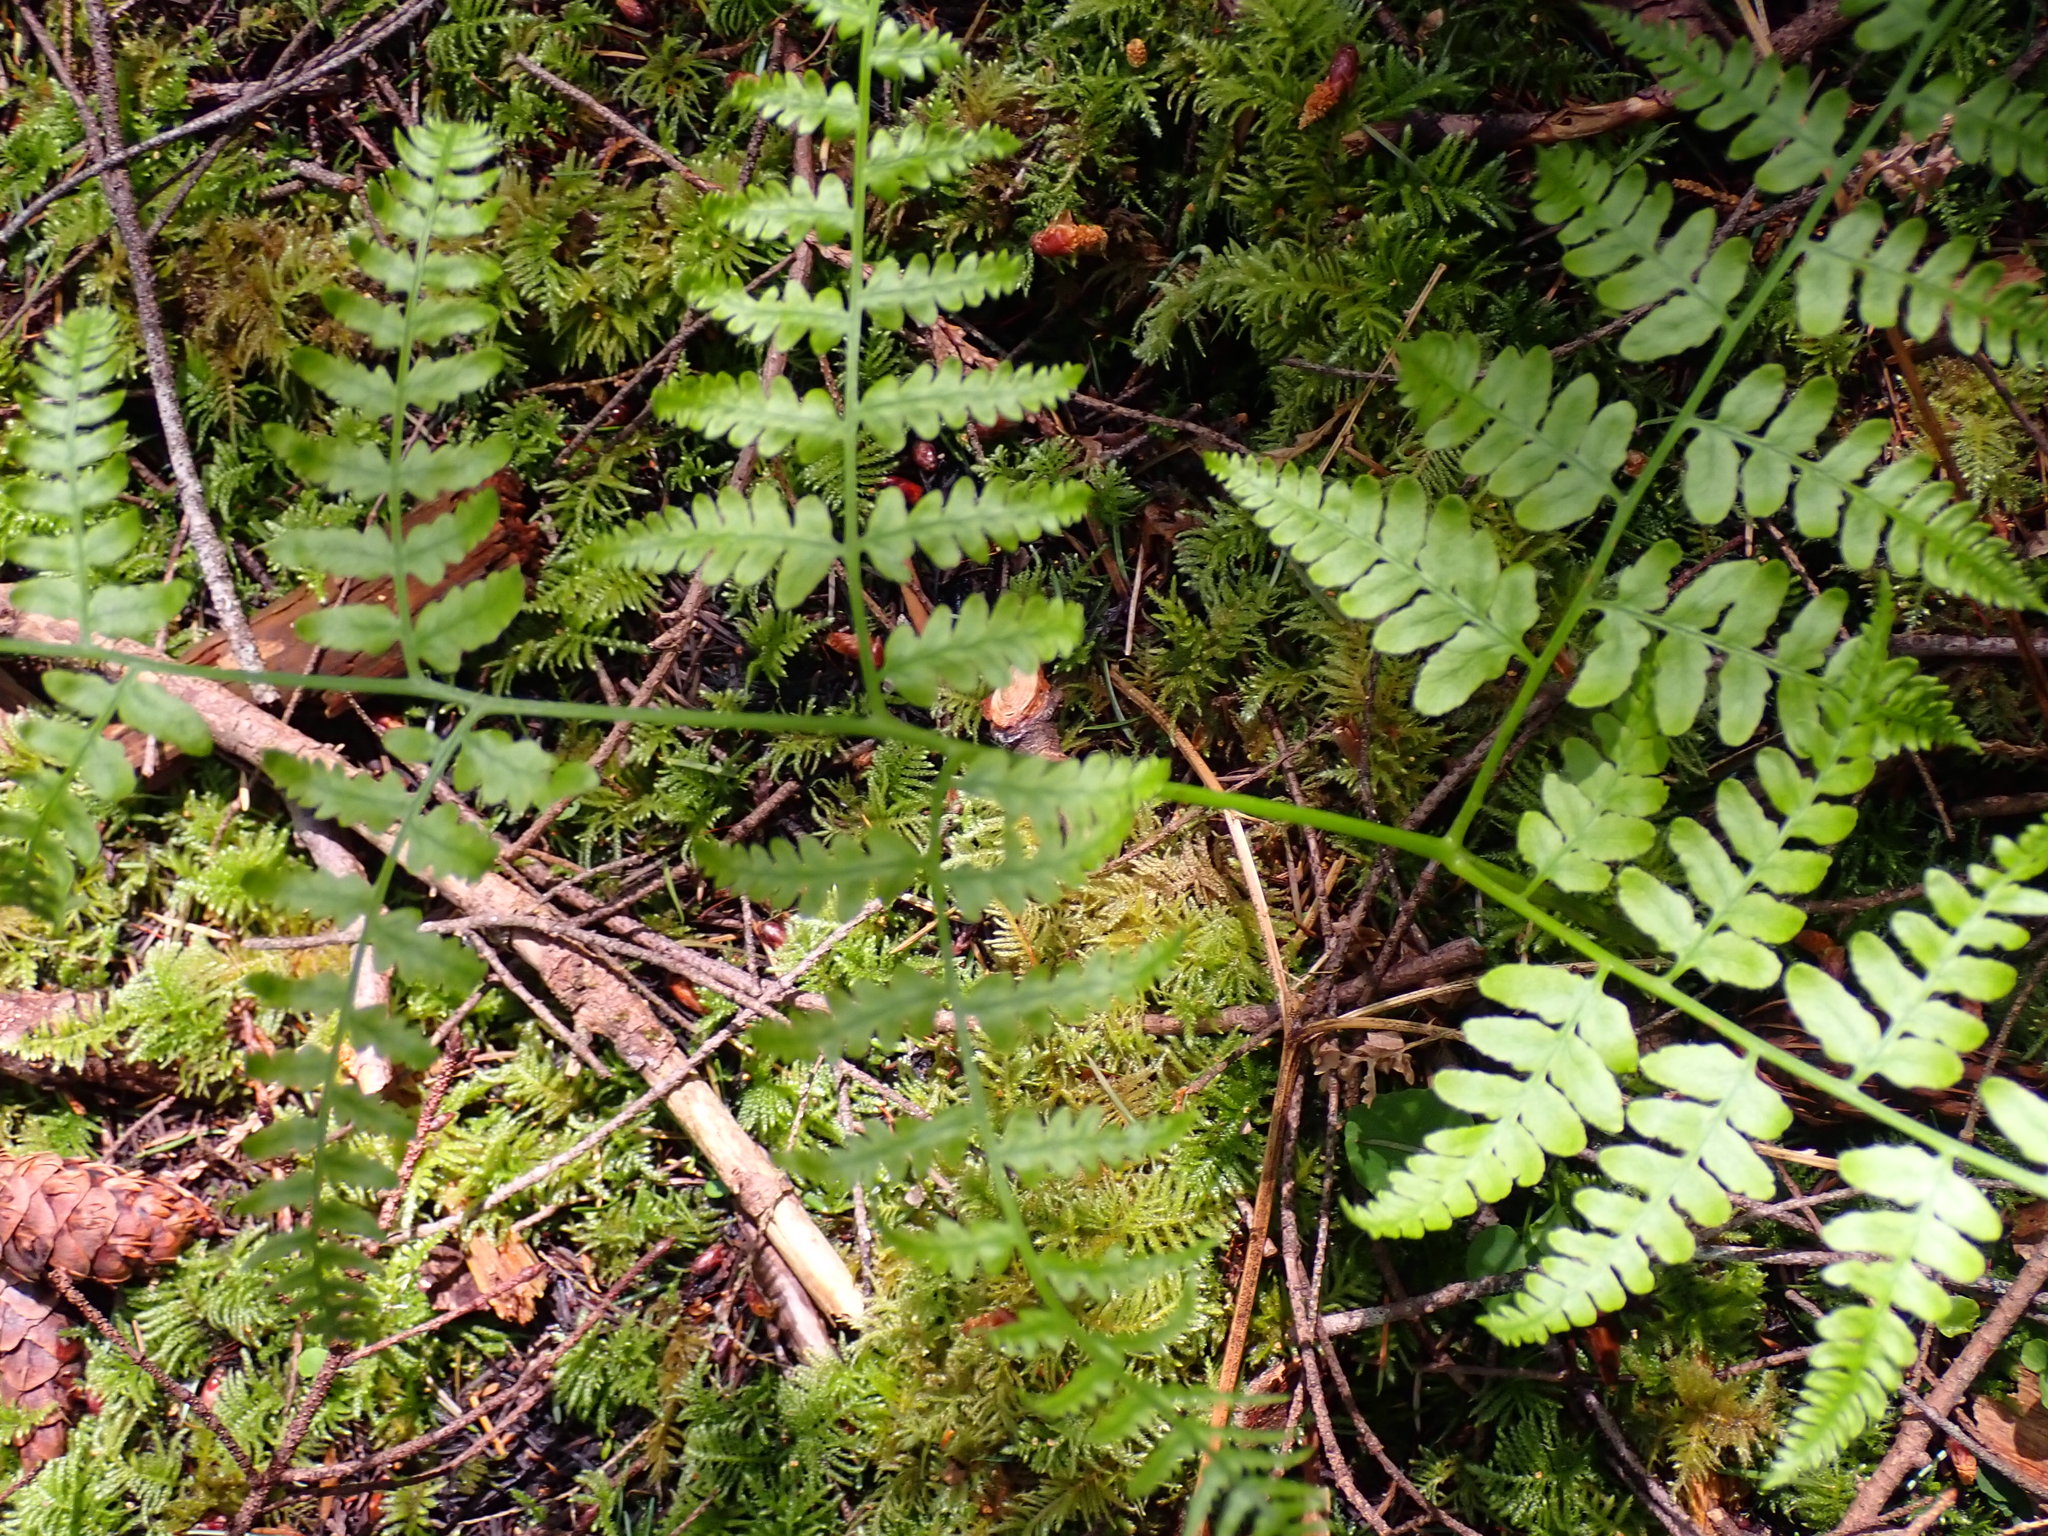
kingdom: Plantae
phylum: Tracheophyta
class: Polypodiopsida
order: Polypodiales
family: Dennstaedtiaceae
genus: Pteridium
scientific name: Pteridium aquilinum
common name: Bracken
